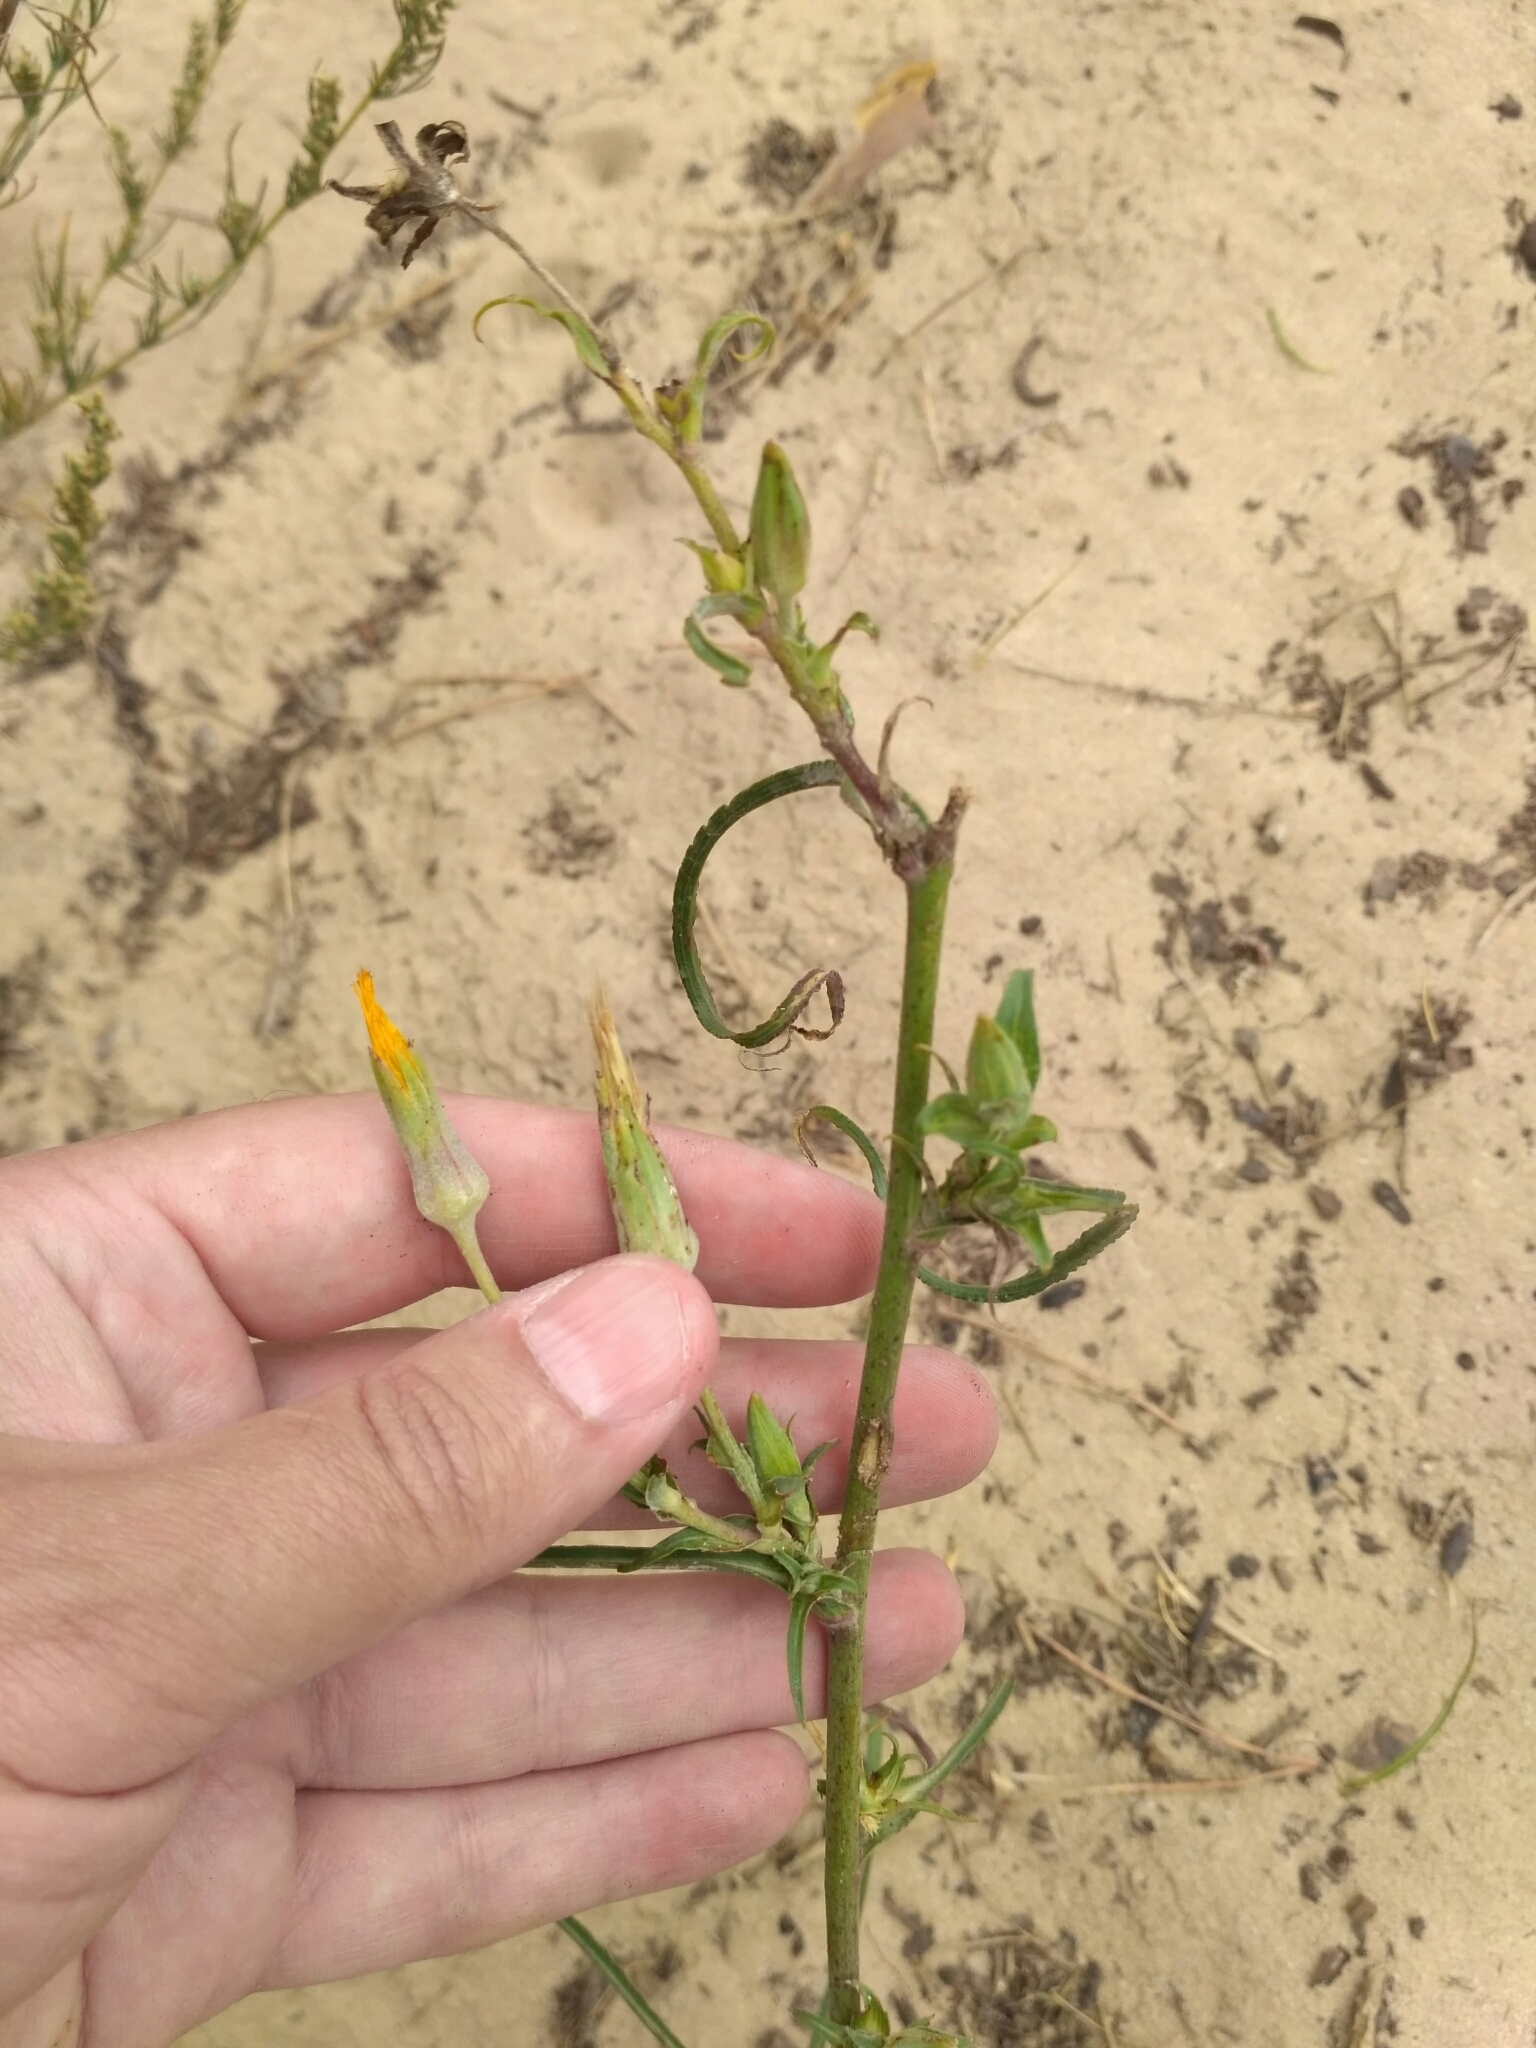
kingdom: Plantae
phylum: Tracheophyta
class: Magnoliopsida
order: Asterales
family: Asteraceae
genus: Tragopogon
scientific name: Tragopogon ucrainicus
